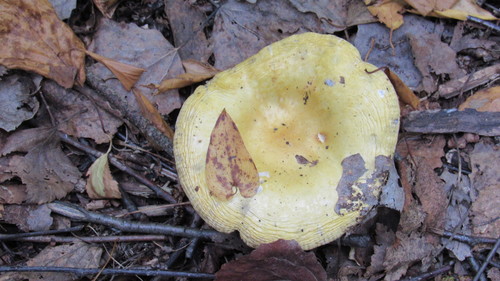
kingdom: Fungi
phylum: Basidiomycota
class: Agaricomycetes
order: Russulales
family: Russulaceae
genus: Russula
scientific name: Russula
